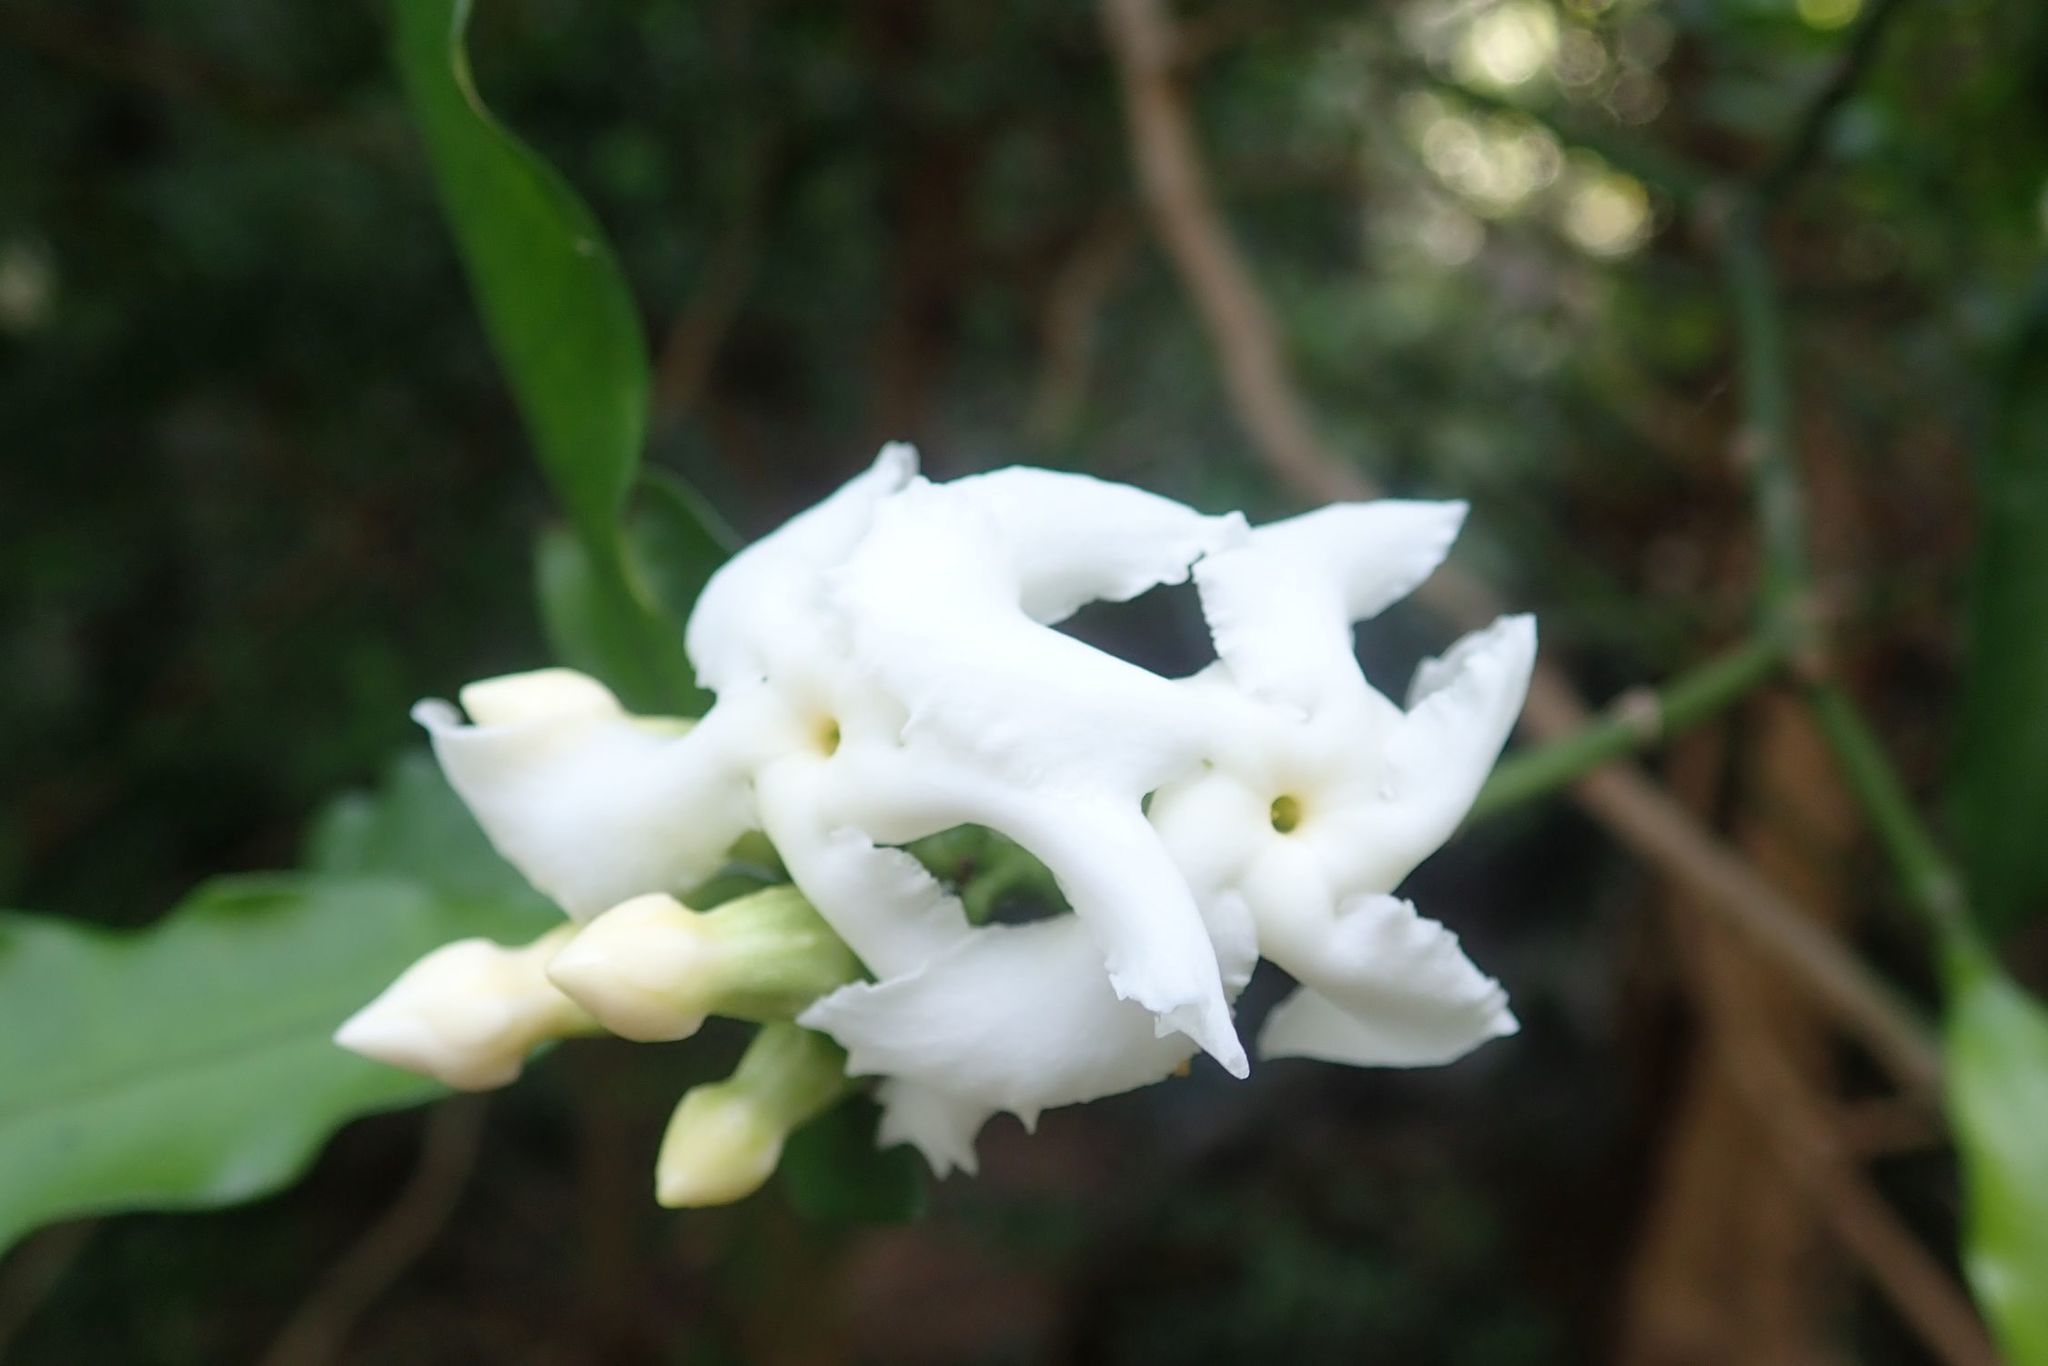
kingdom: Plantae
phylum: Tracheophyta
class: Magnoliopsida
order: Gentianales
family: Apocynaceae
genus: Tabernaemontana
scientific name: Tabernaemontana ventricosa
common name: Forest toad-tree
